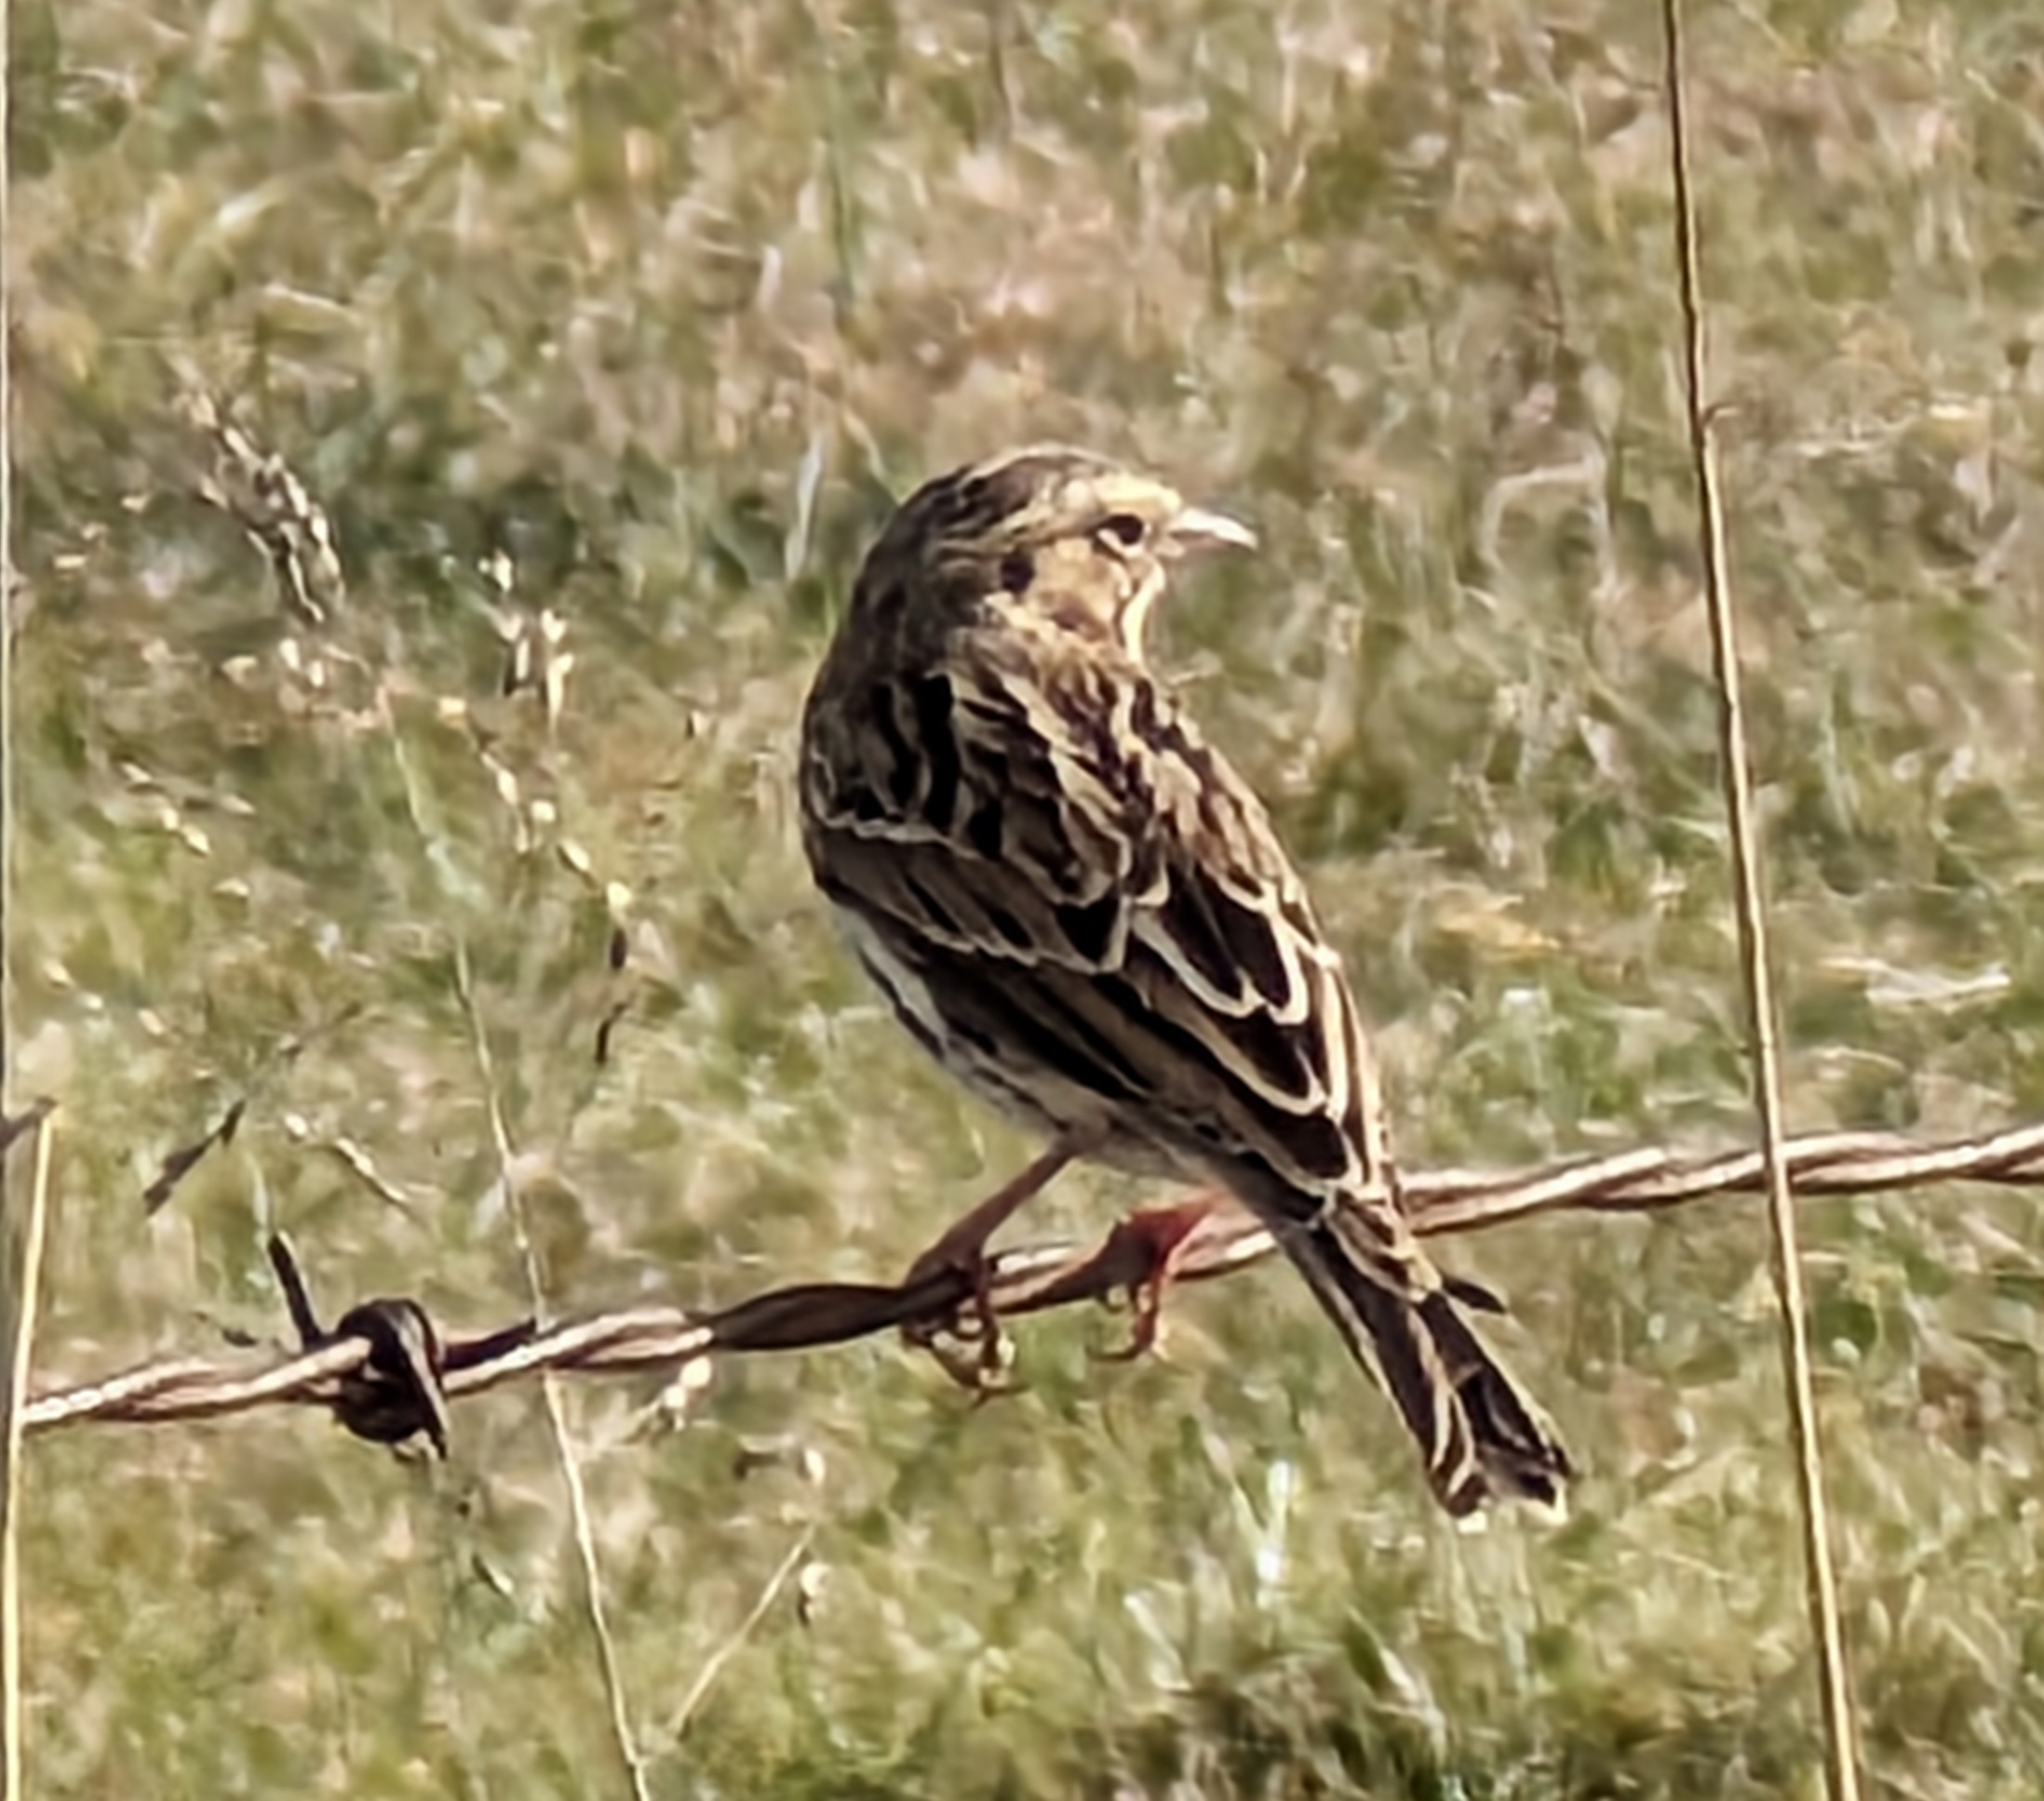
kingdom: Animalia
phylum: Chordata
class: Aves
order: Passeriformes
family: Passerellidae
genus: Passerculus
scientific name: Passerculus sandwichensis
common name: Savannah sparrow
